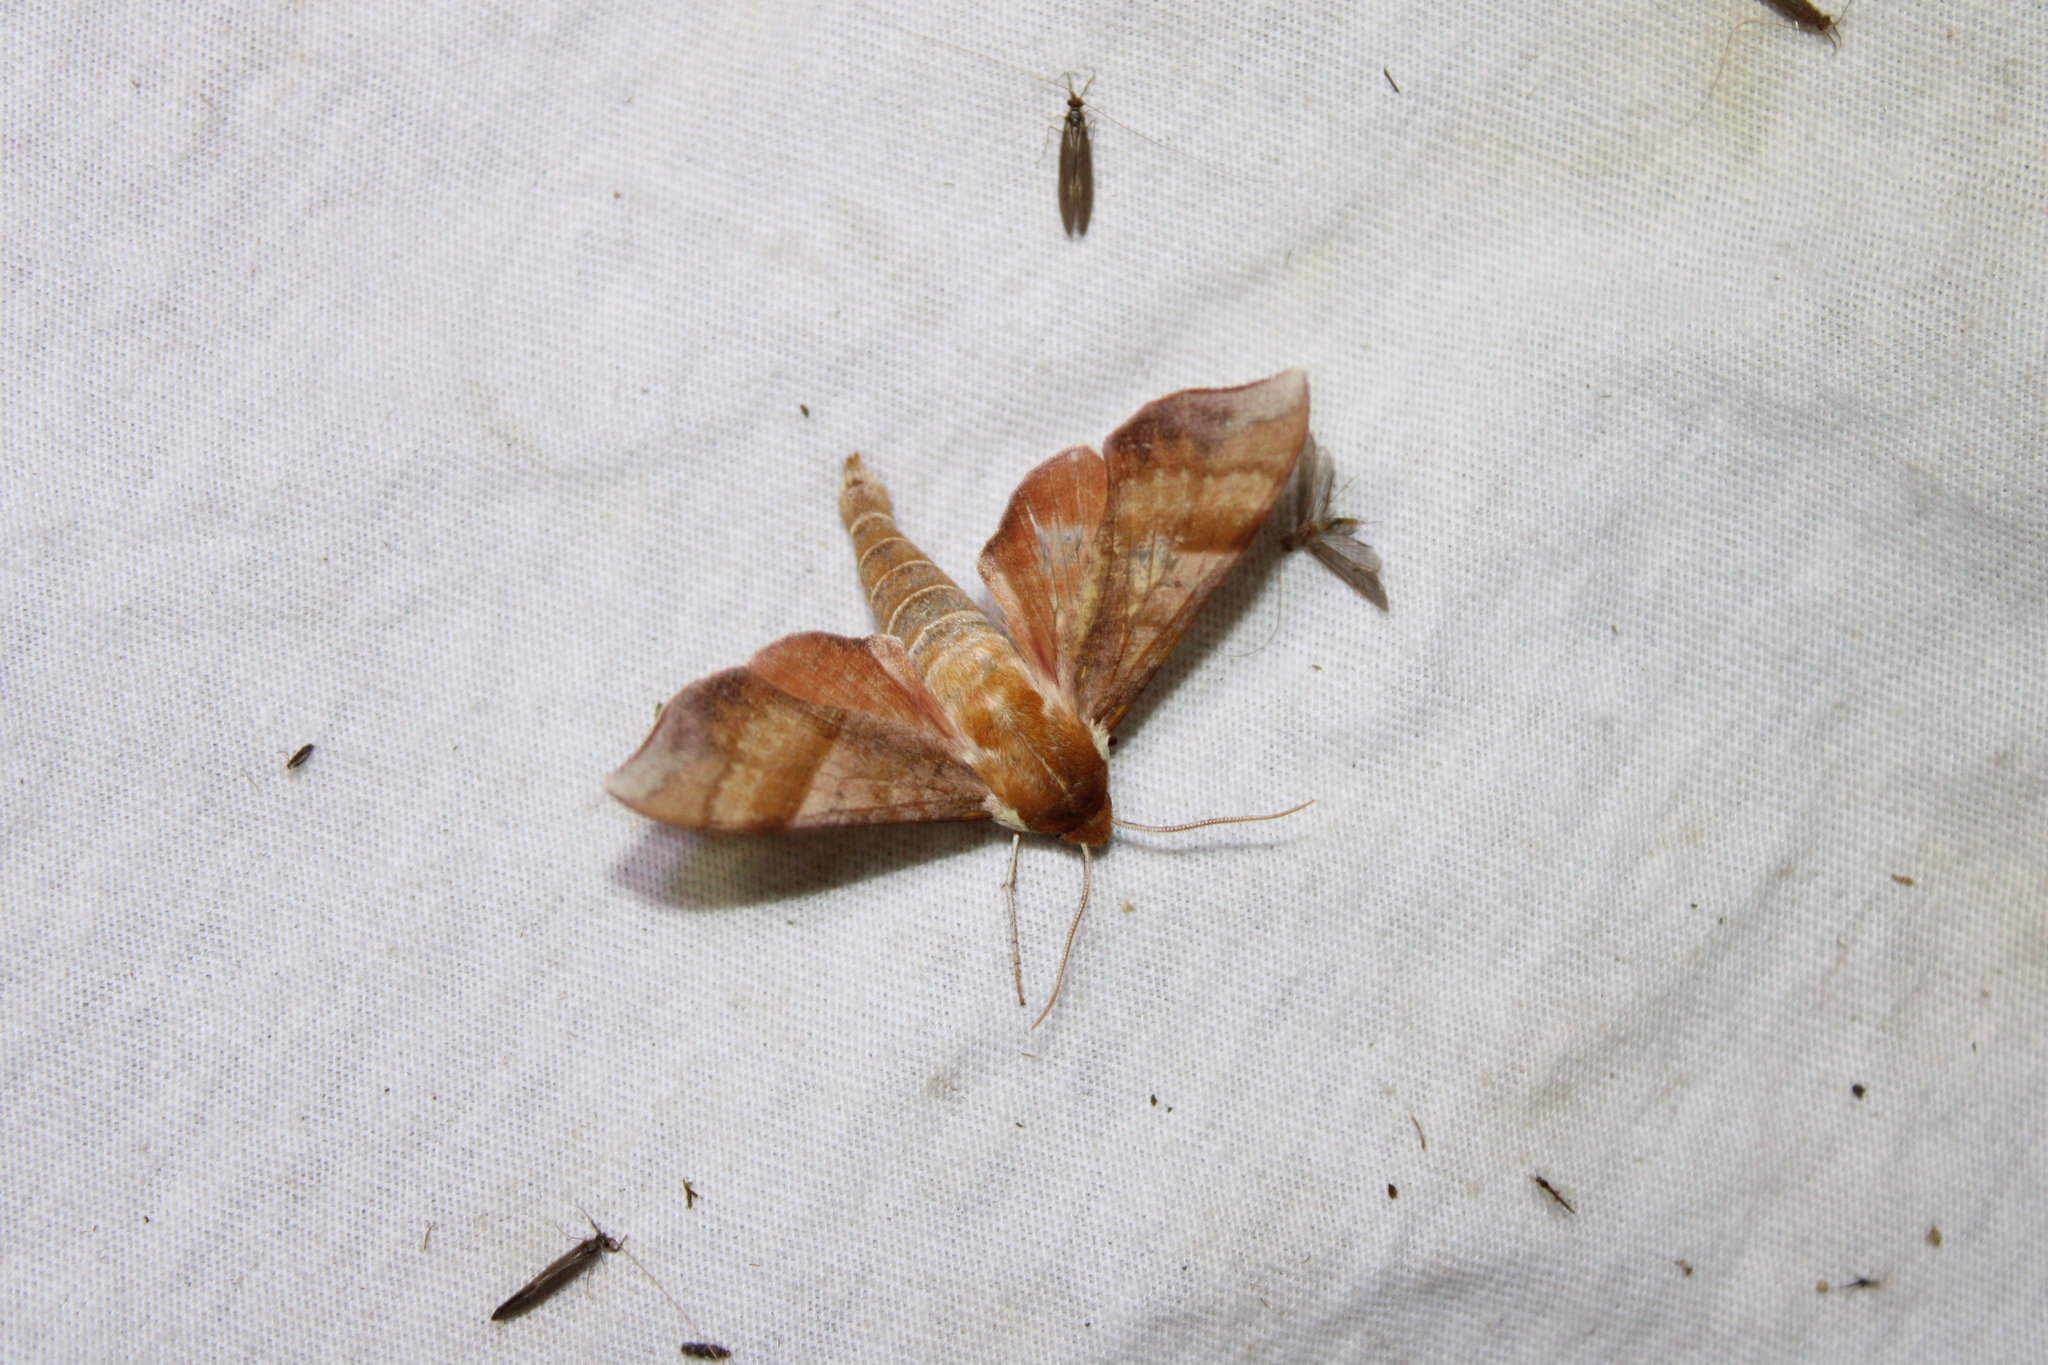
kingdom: Animalia
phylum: Arthropoda
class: Insecta
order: Lepidoptera
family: Sphingidae
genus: Darapsa
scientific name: Darapsa choerilus
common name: Azalea sphinx
